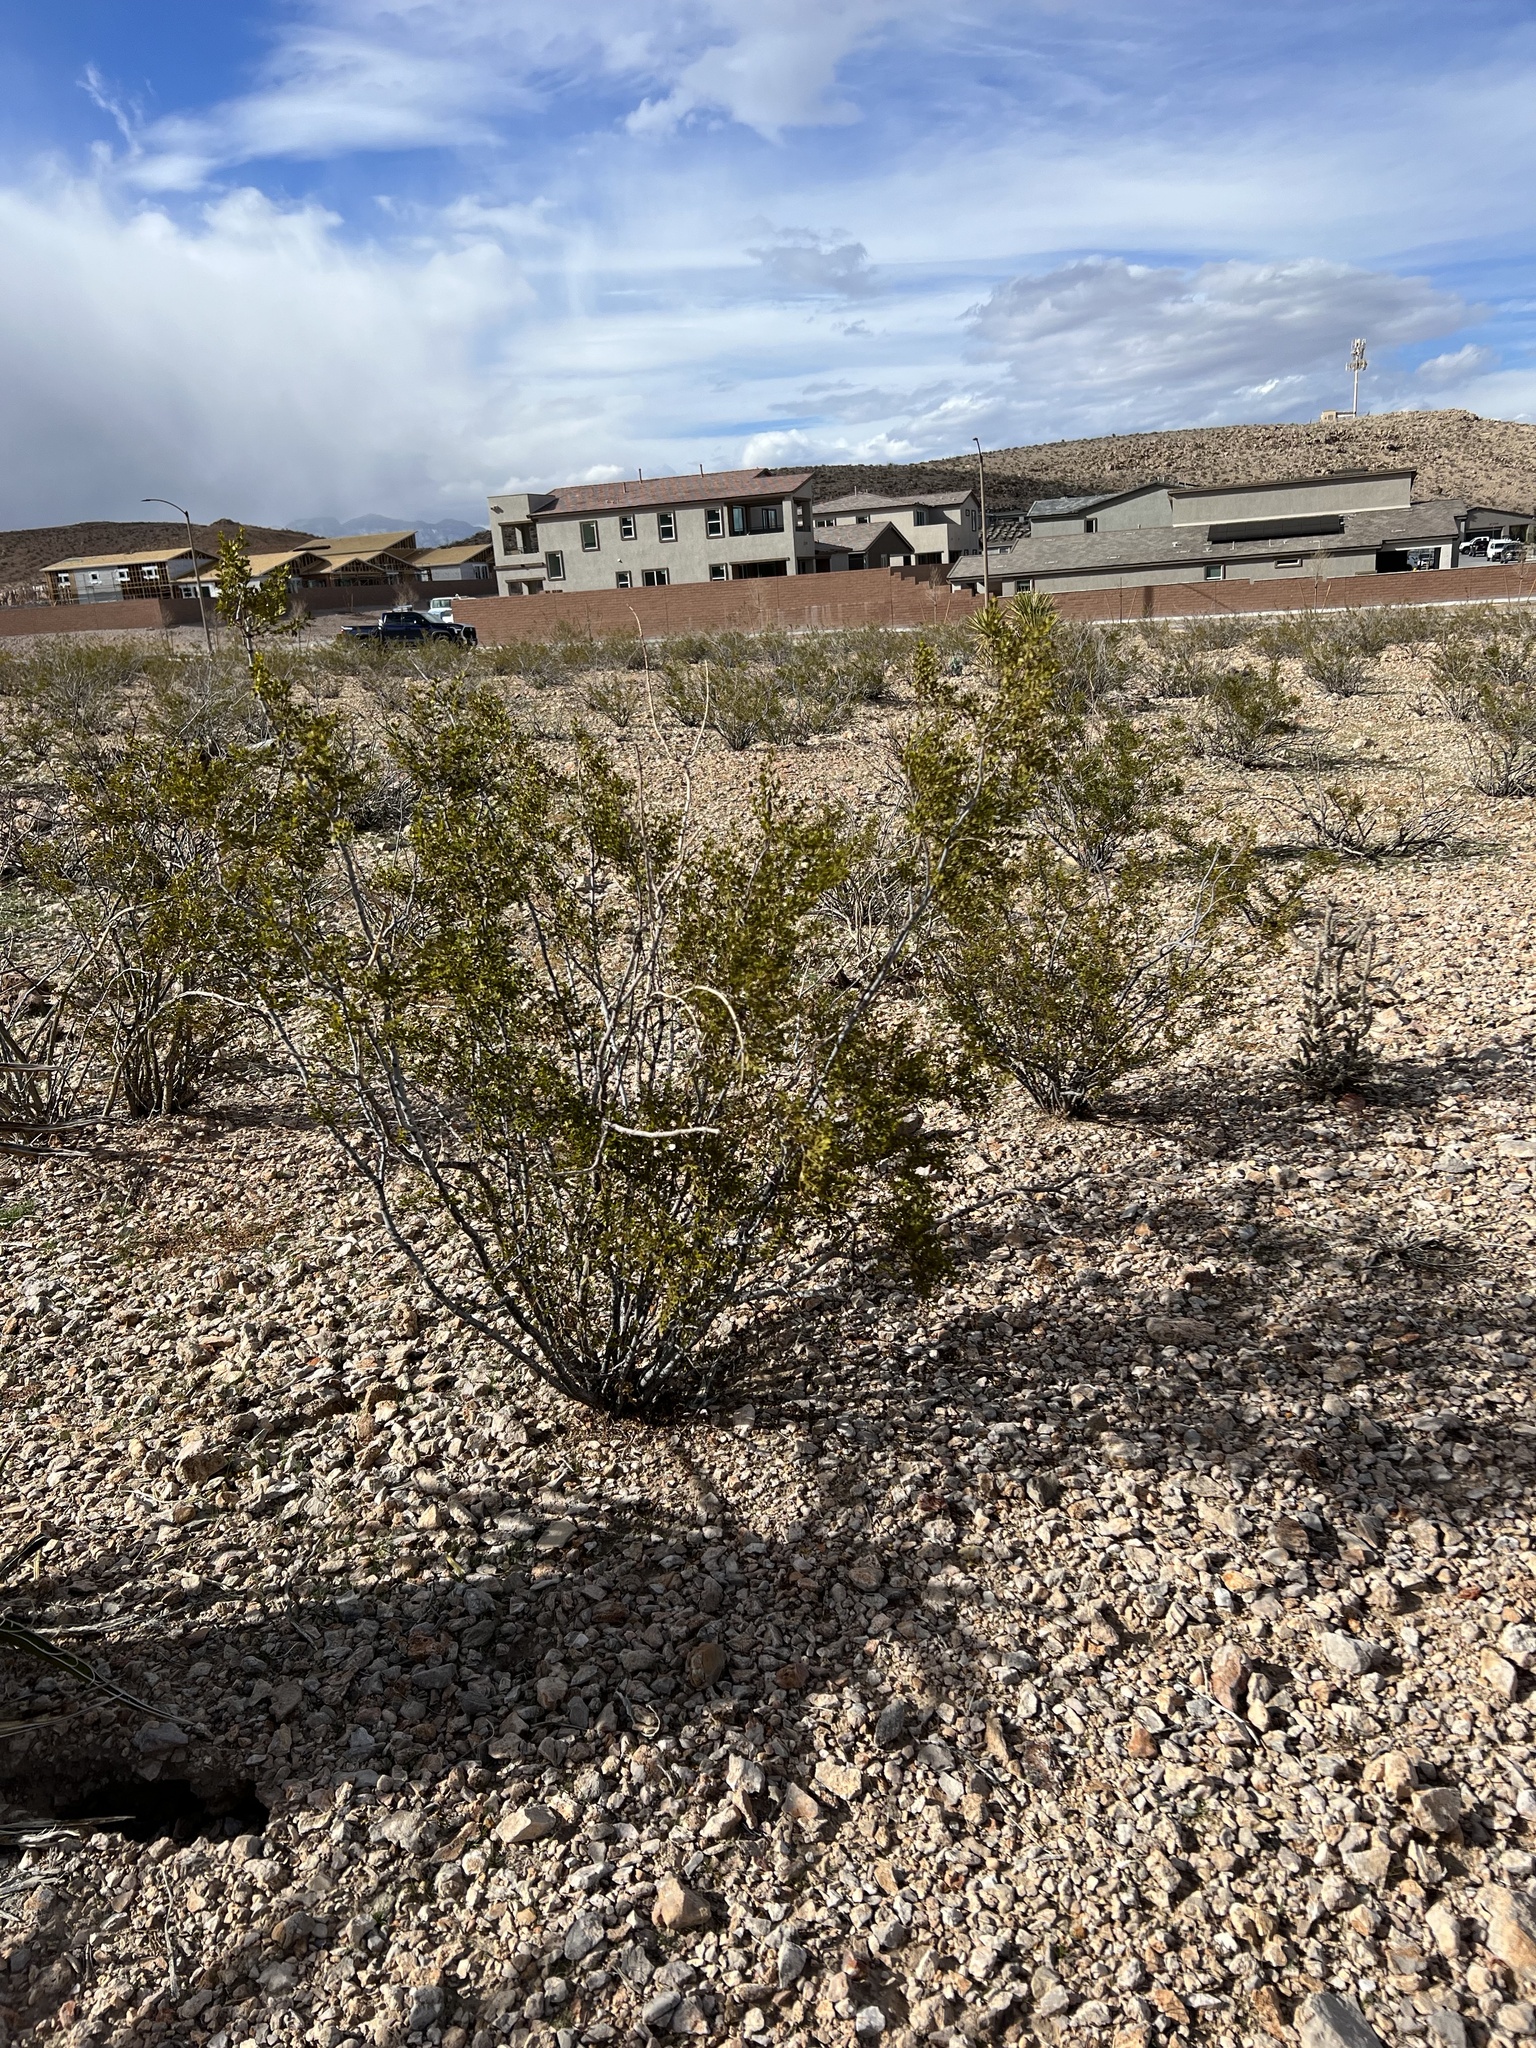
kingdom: Plantae
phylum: Tracheophyta
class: Magnoliopsida
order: Zygophyllales
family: Zygophyllaceae
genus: Larrea
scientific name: Larrea tridentata
